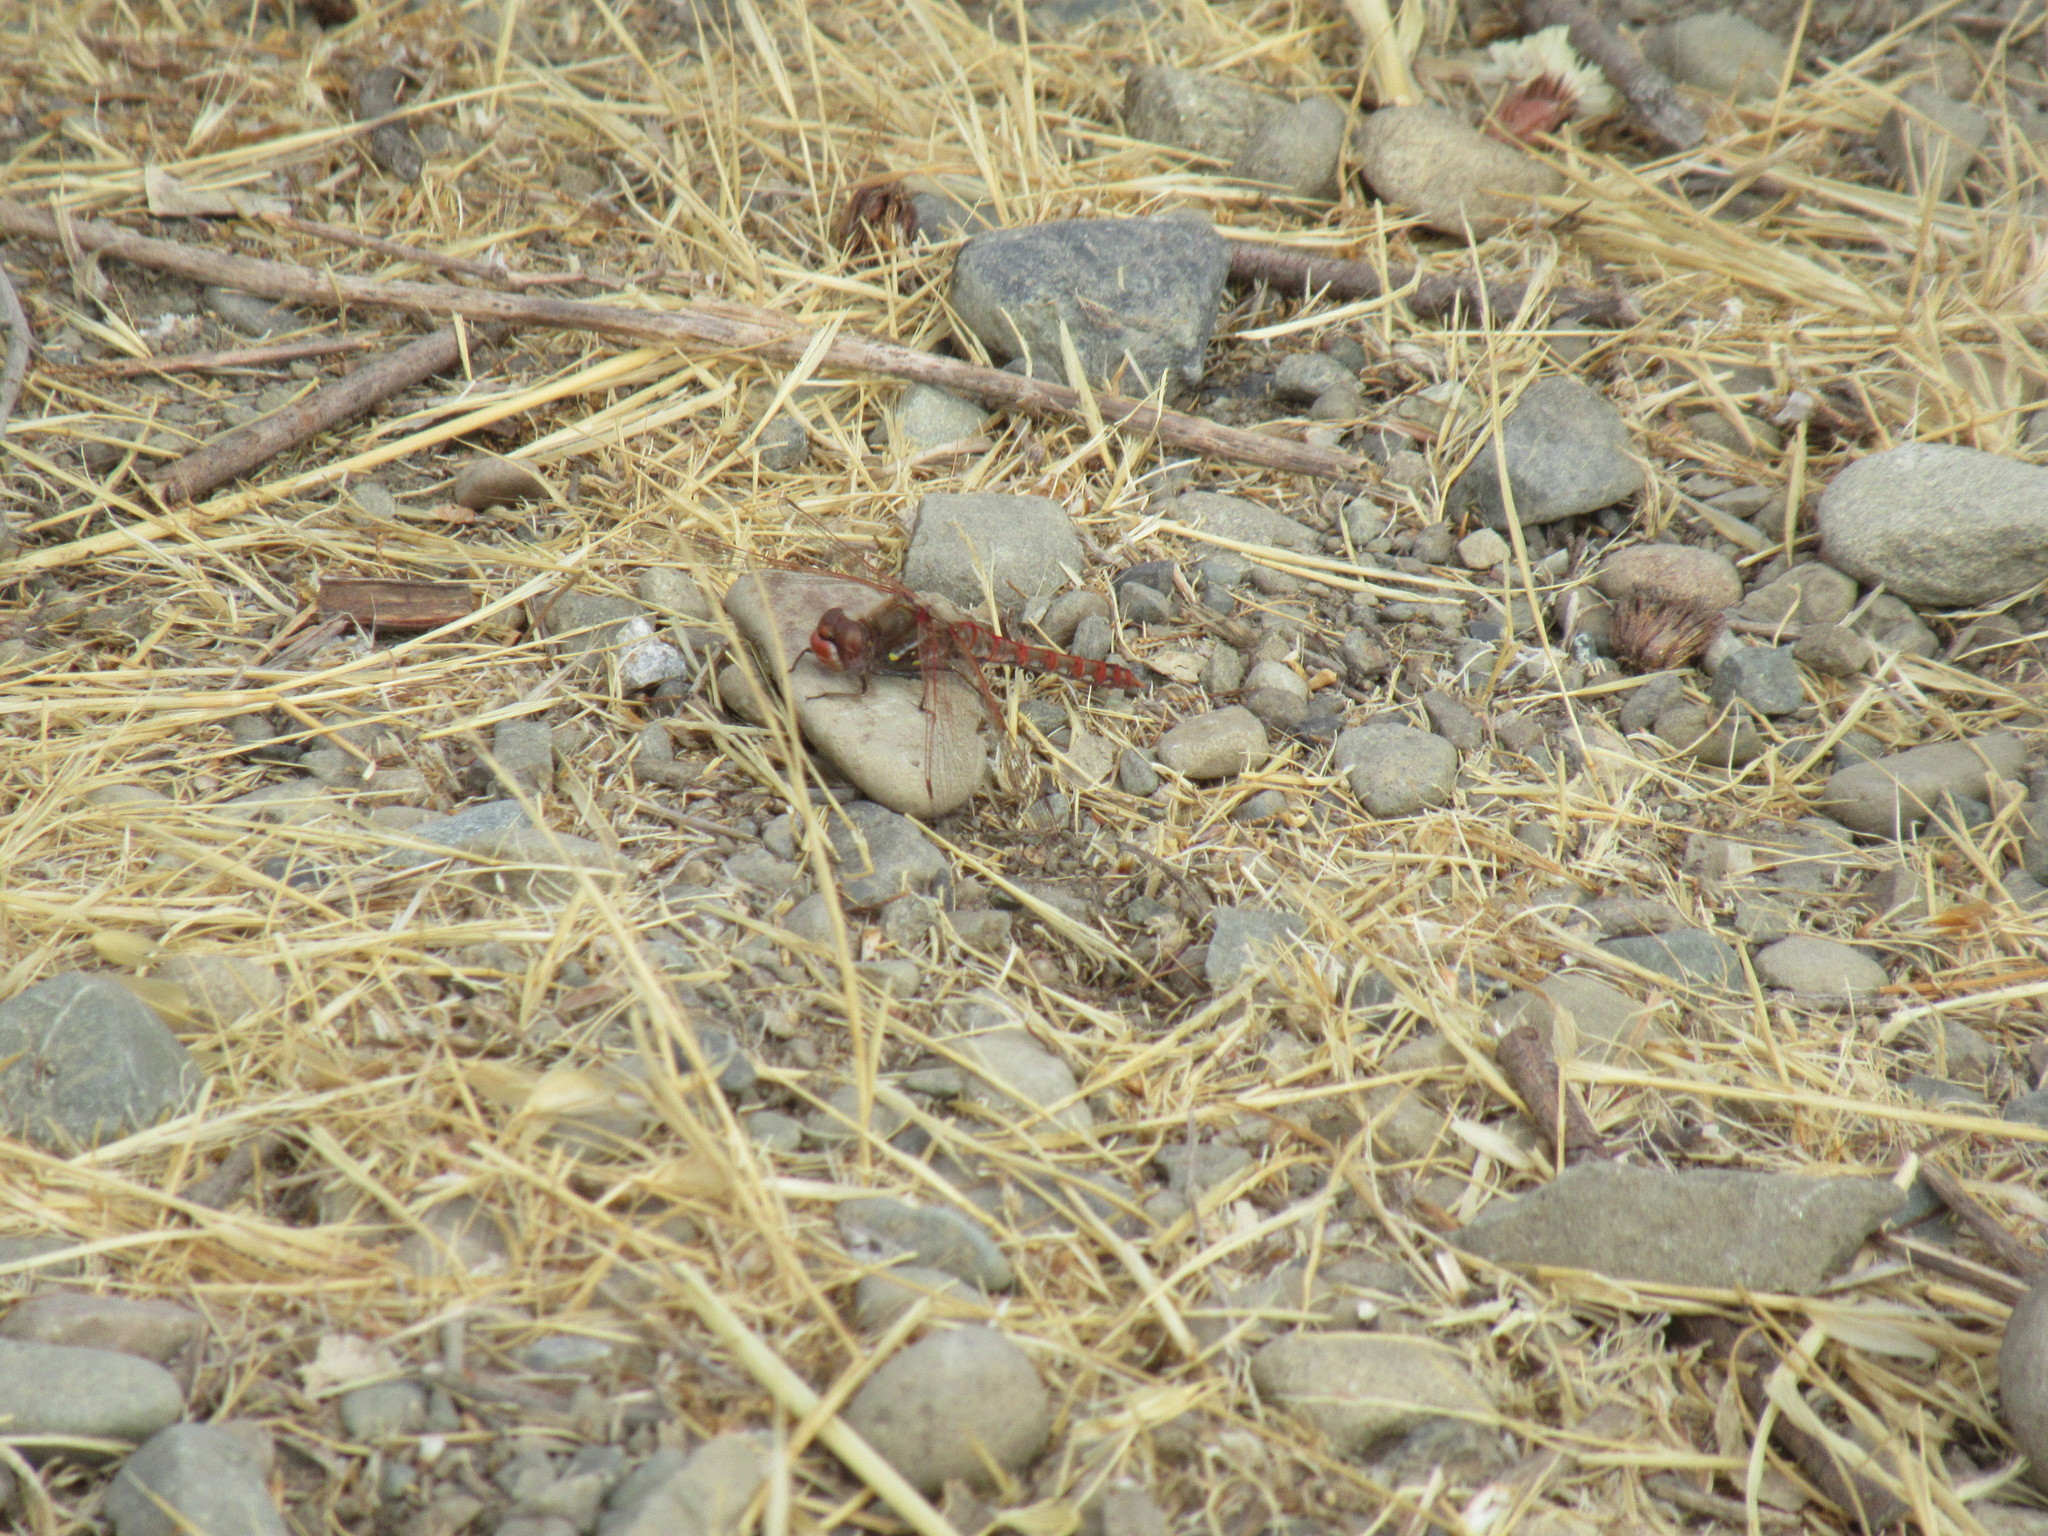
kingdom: Animalia
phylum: Arthropoda
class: Insecta
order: Odonata
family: Libellulidae
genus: Sympetrum
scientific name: Sympetrum corruptum
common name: Variegated meadowhawk
